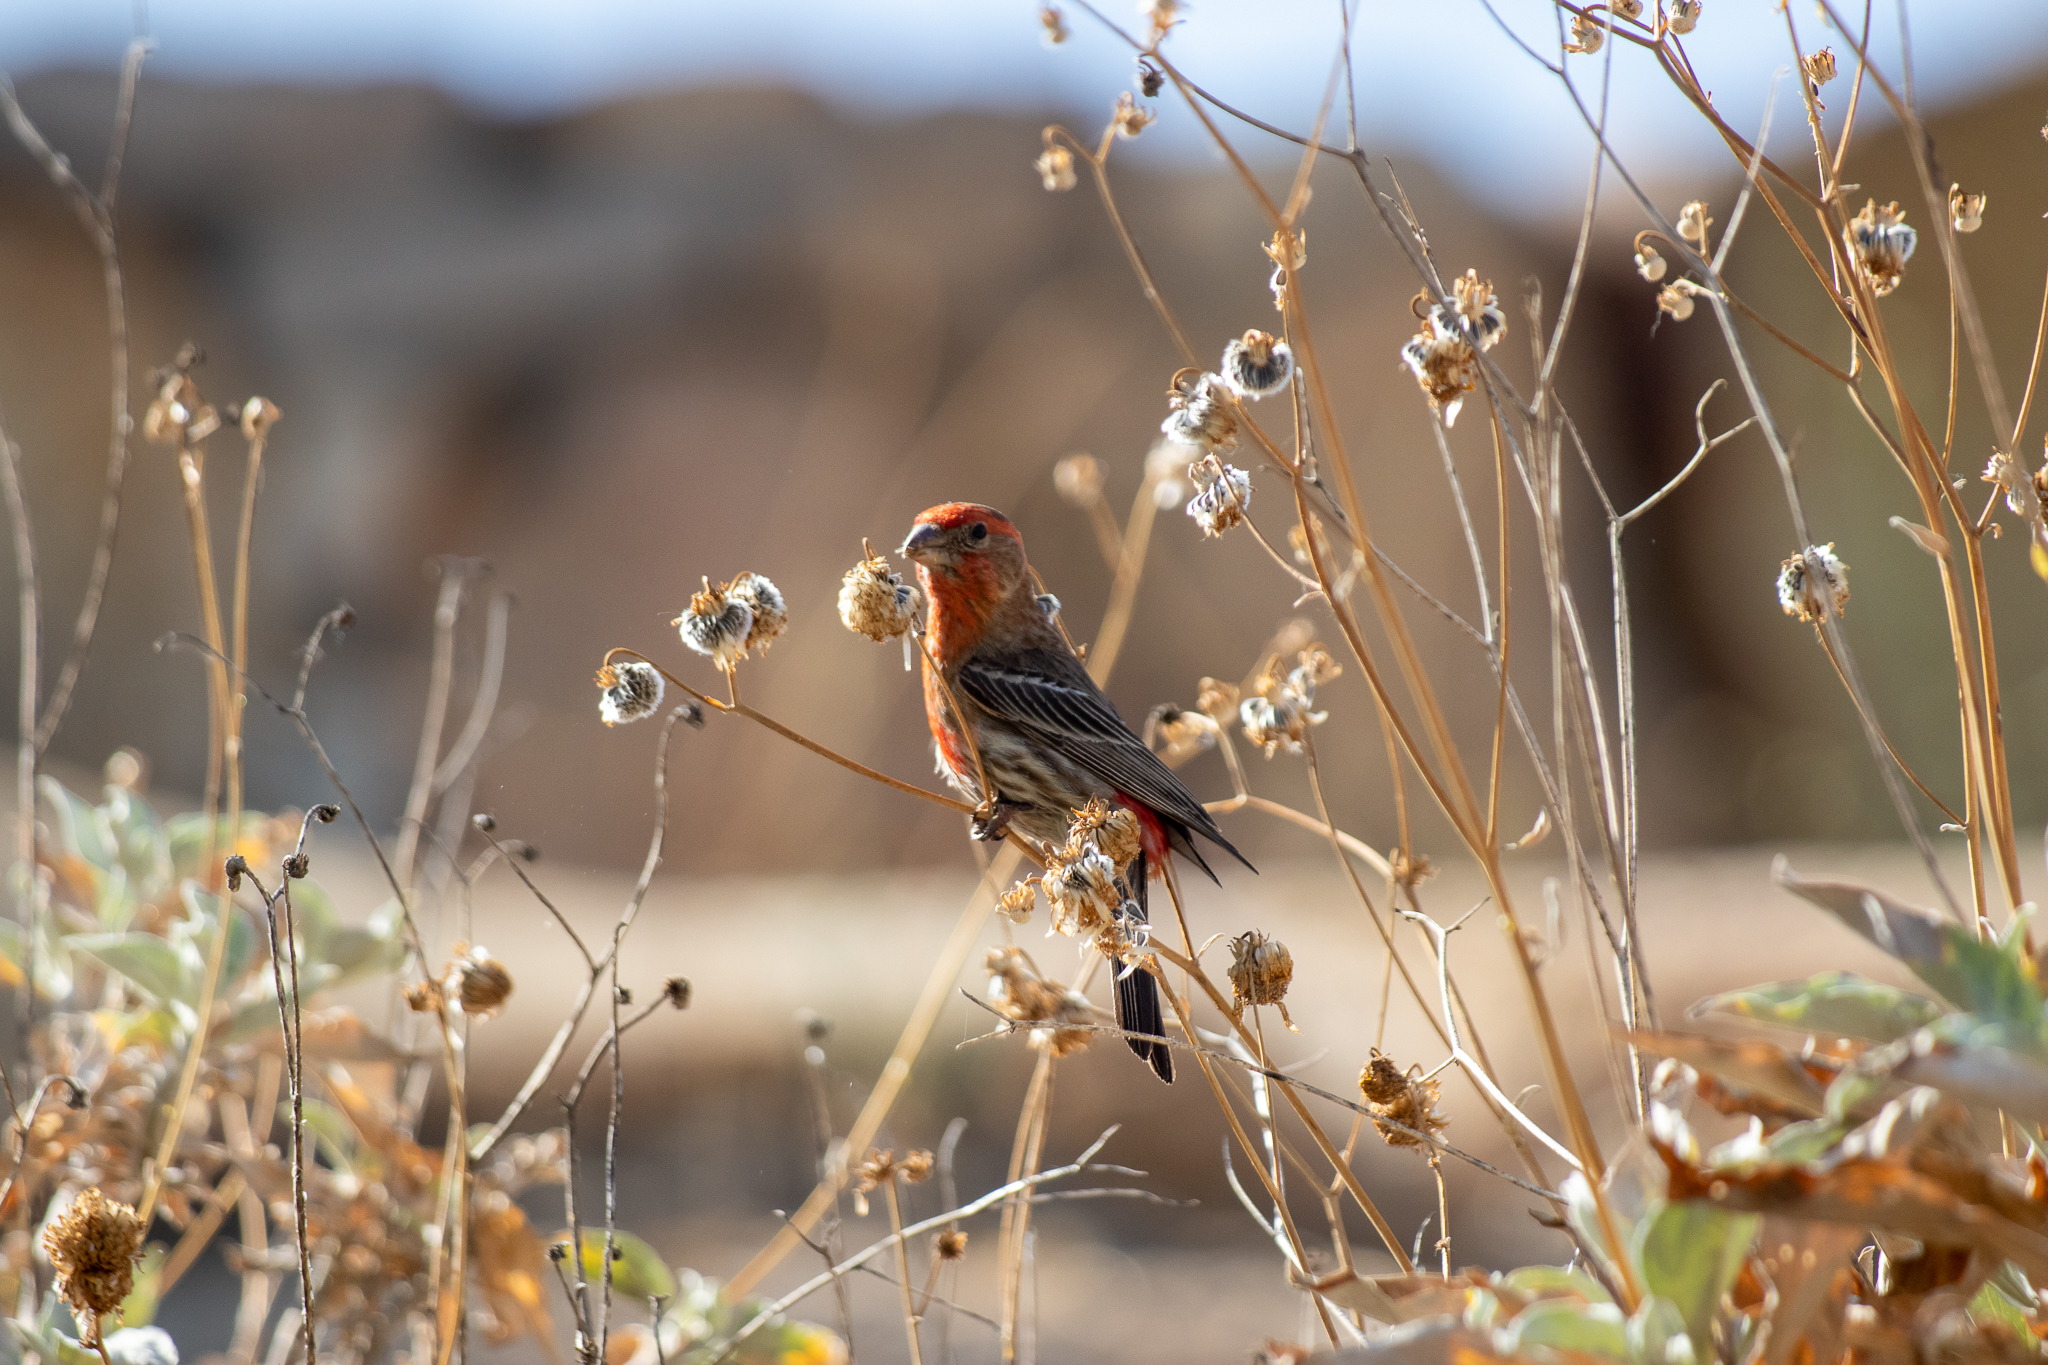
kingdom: Animalia
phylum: Chordata
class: Aves
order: Passeriformes
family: Fringillidae
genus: Haemorhous
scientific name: Haemorhous mexicanus
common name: House finch
